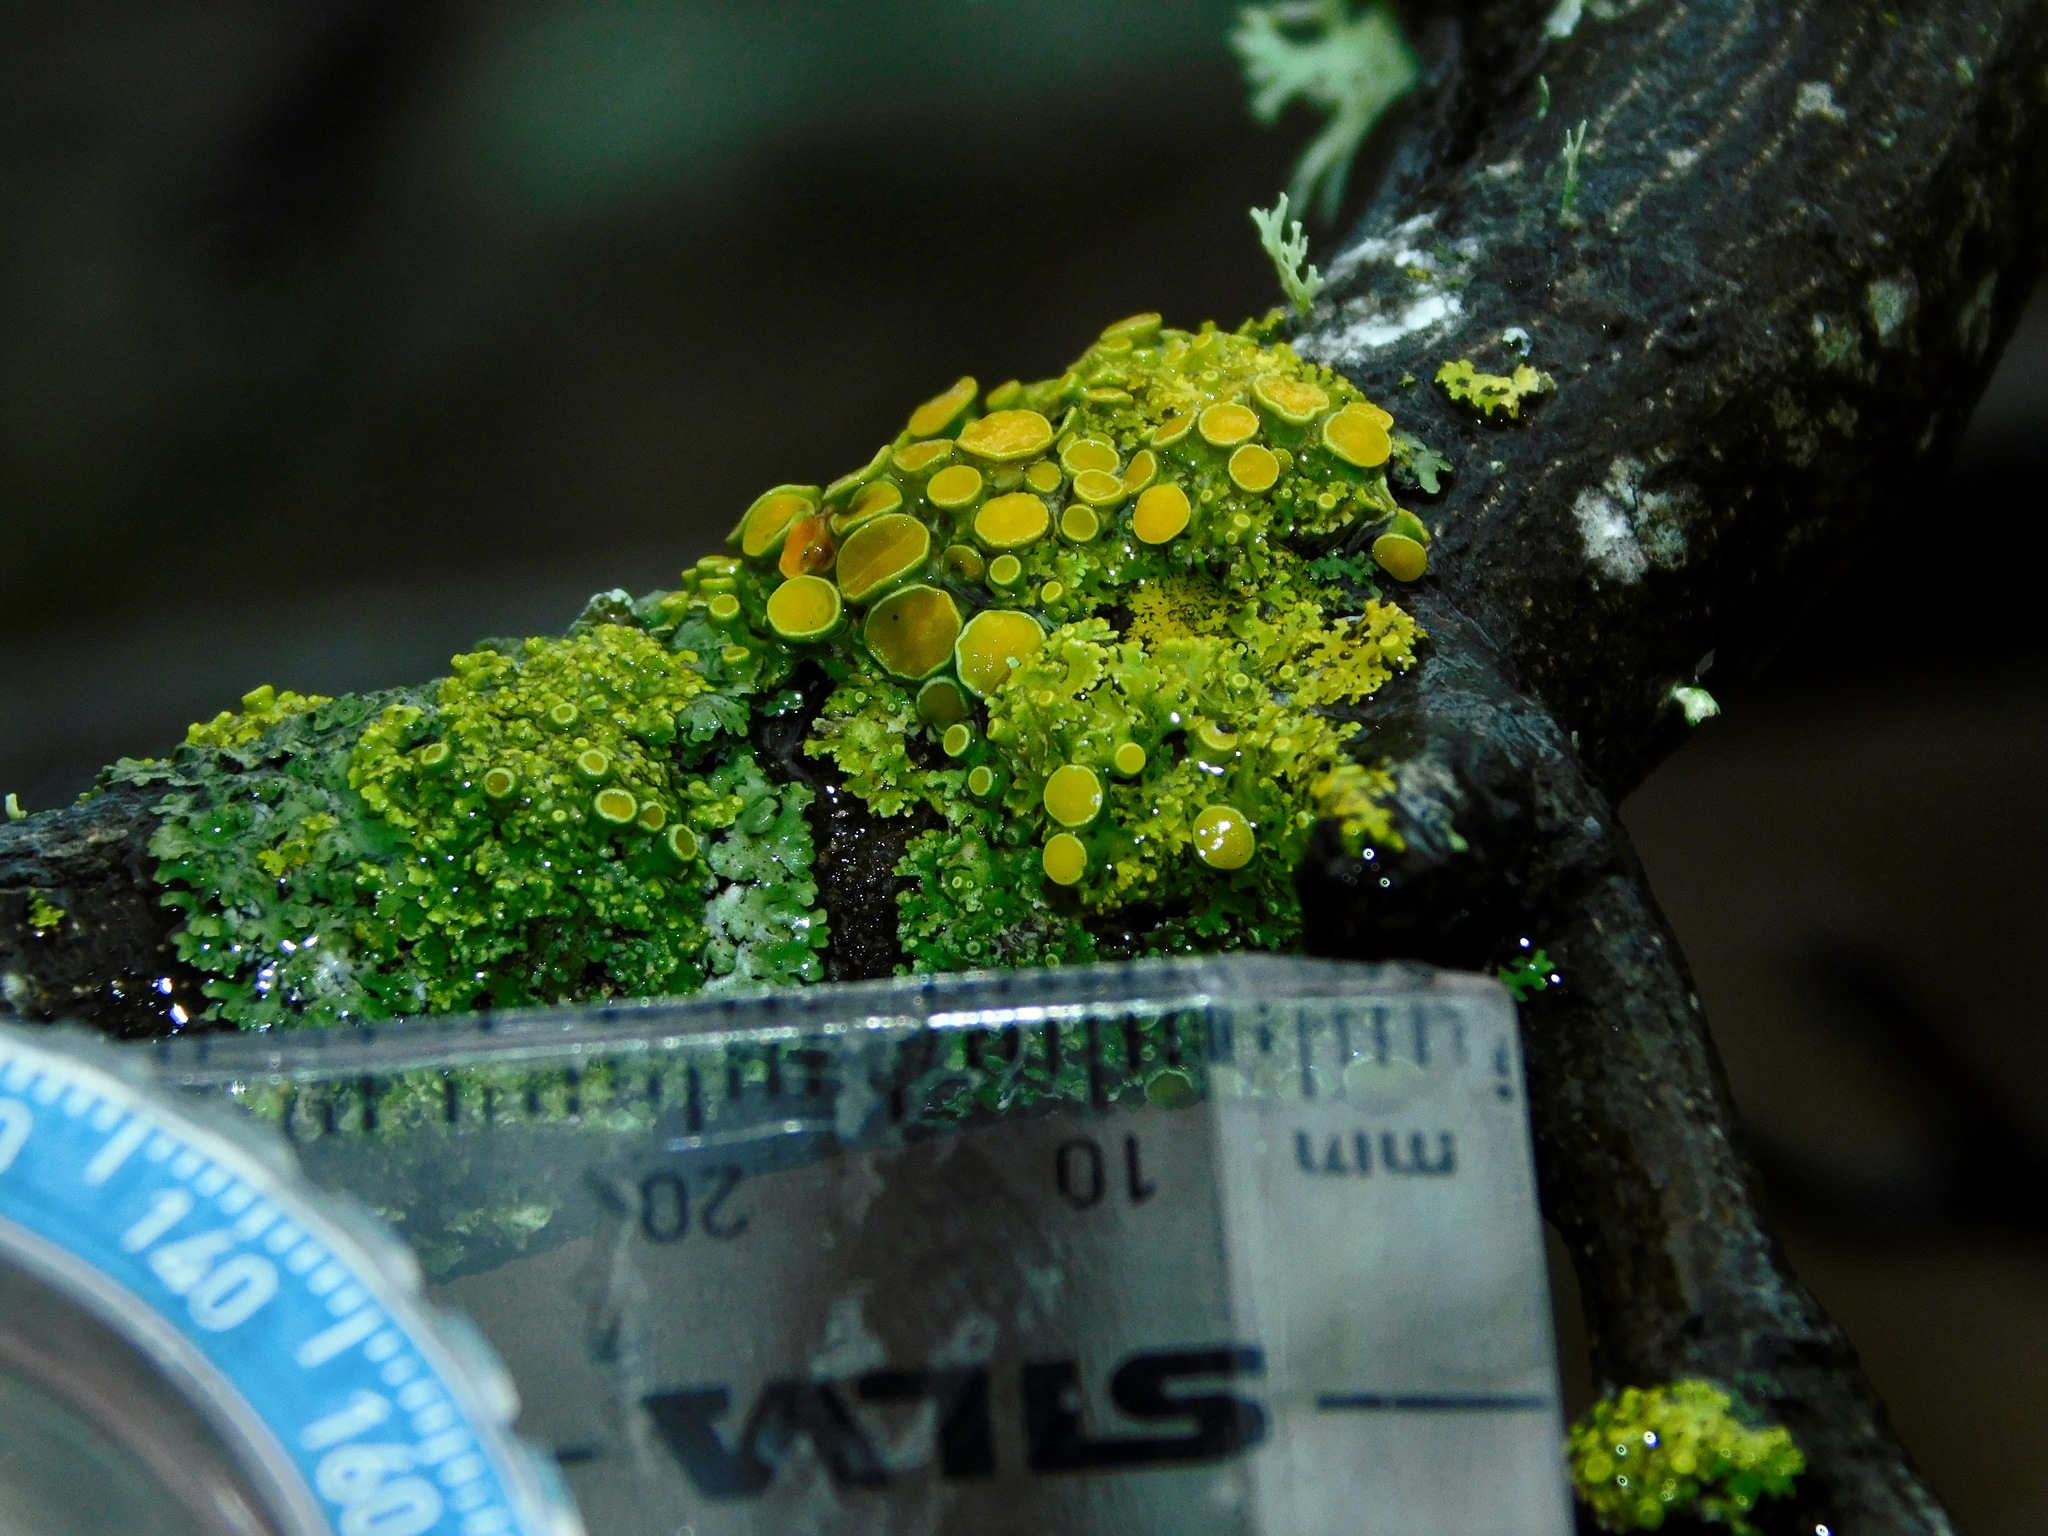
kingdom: Fungi
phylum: Ascomycota
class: Lecanoromycetes
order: Teloschistales
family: Teloschistaceae
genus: Gallowayella
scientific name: Gallowayella hasseana
